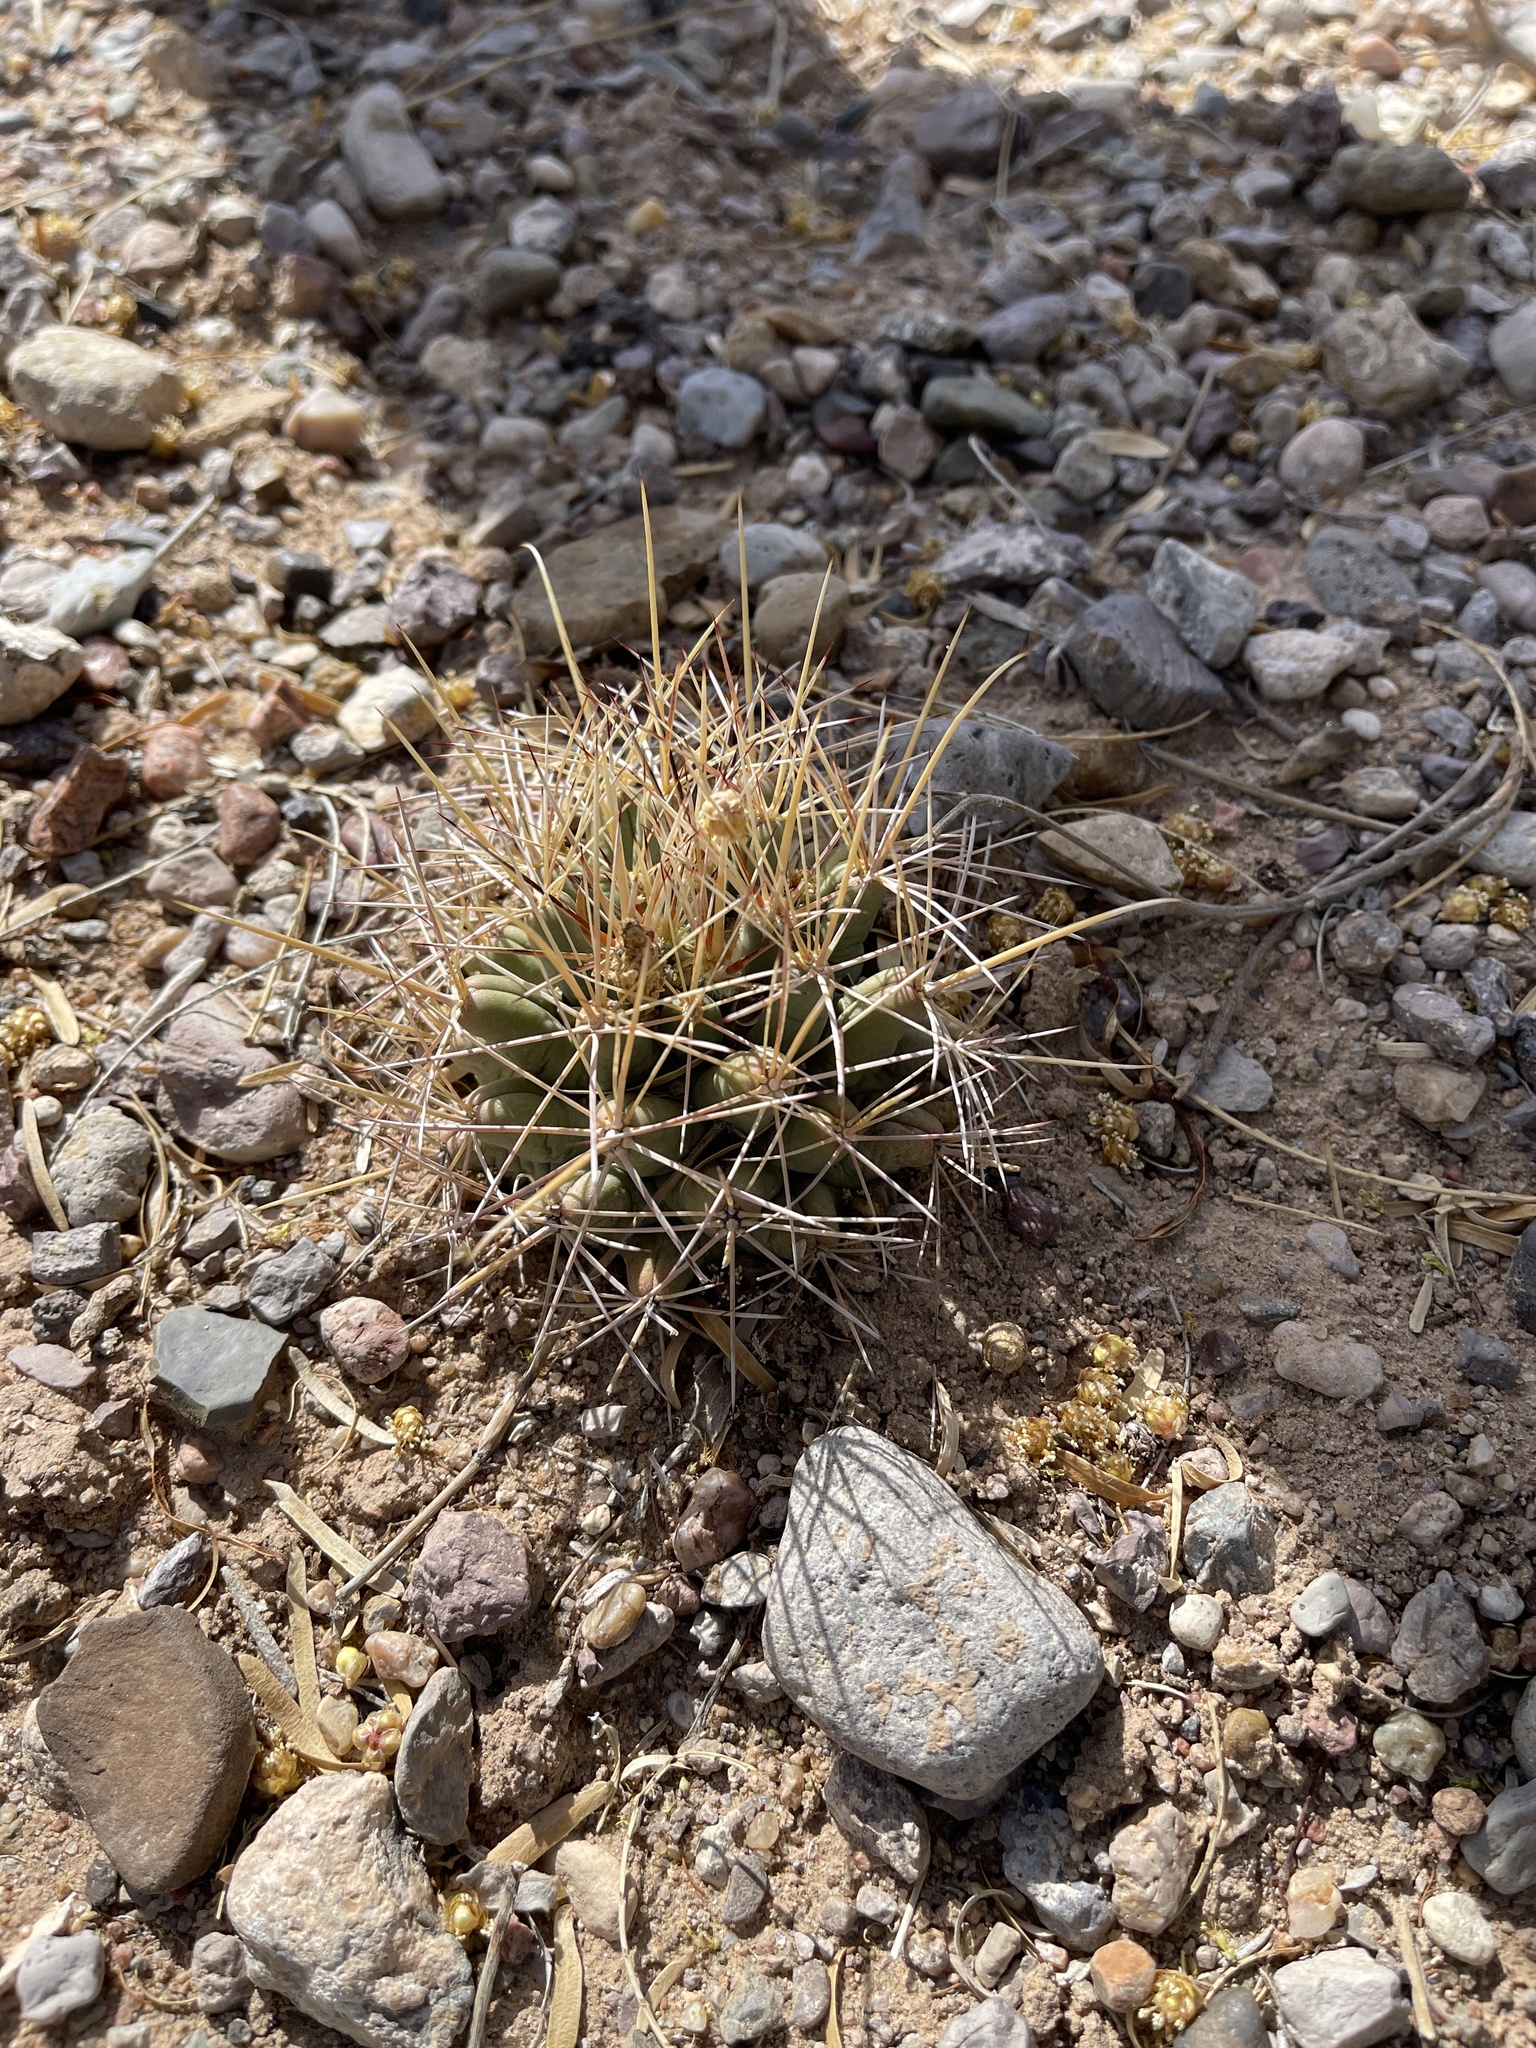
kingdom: Plantae
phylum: Tracheophyta
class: Magnoliopsida
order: Caryophyllales
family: Cactaceae
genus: Coryphantha
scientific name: Coryphantha robustispina
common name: Pima pineapple cactus
